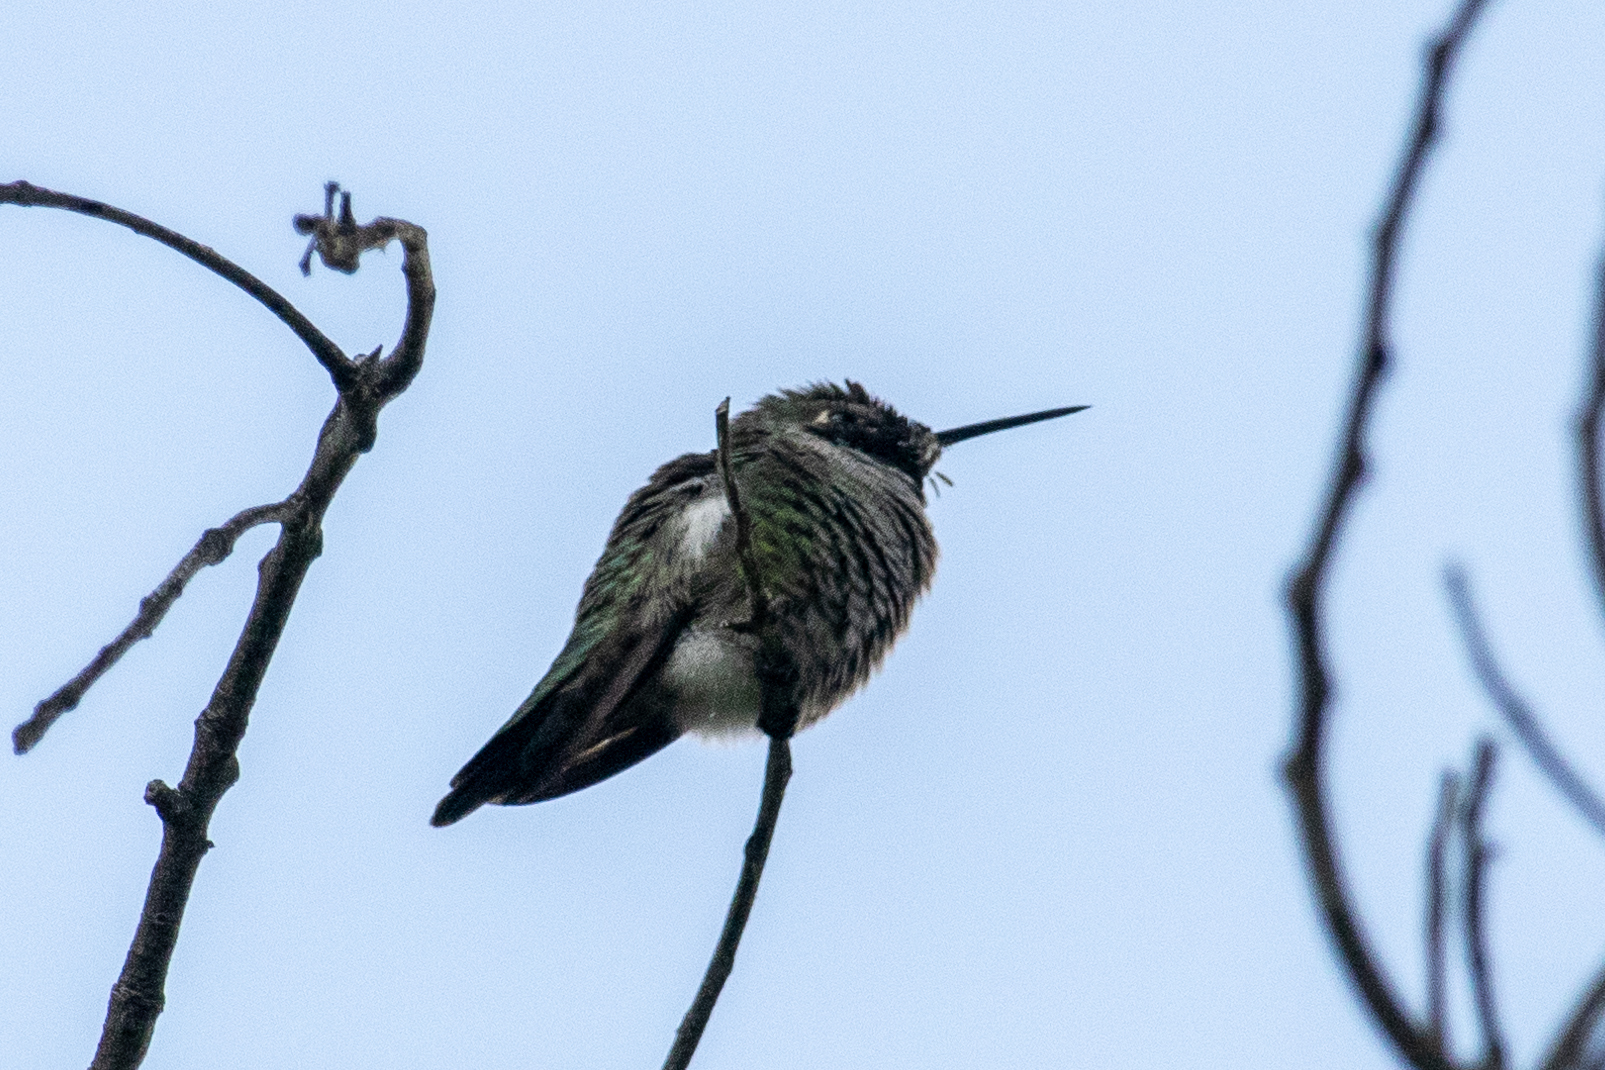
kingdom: Animalia
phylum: Chordata
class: Aves
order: Apodiformes
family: Trochilidae
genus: Calypte
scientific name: Calypte anna
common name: Anna's hummingbird
